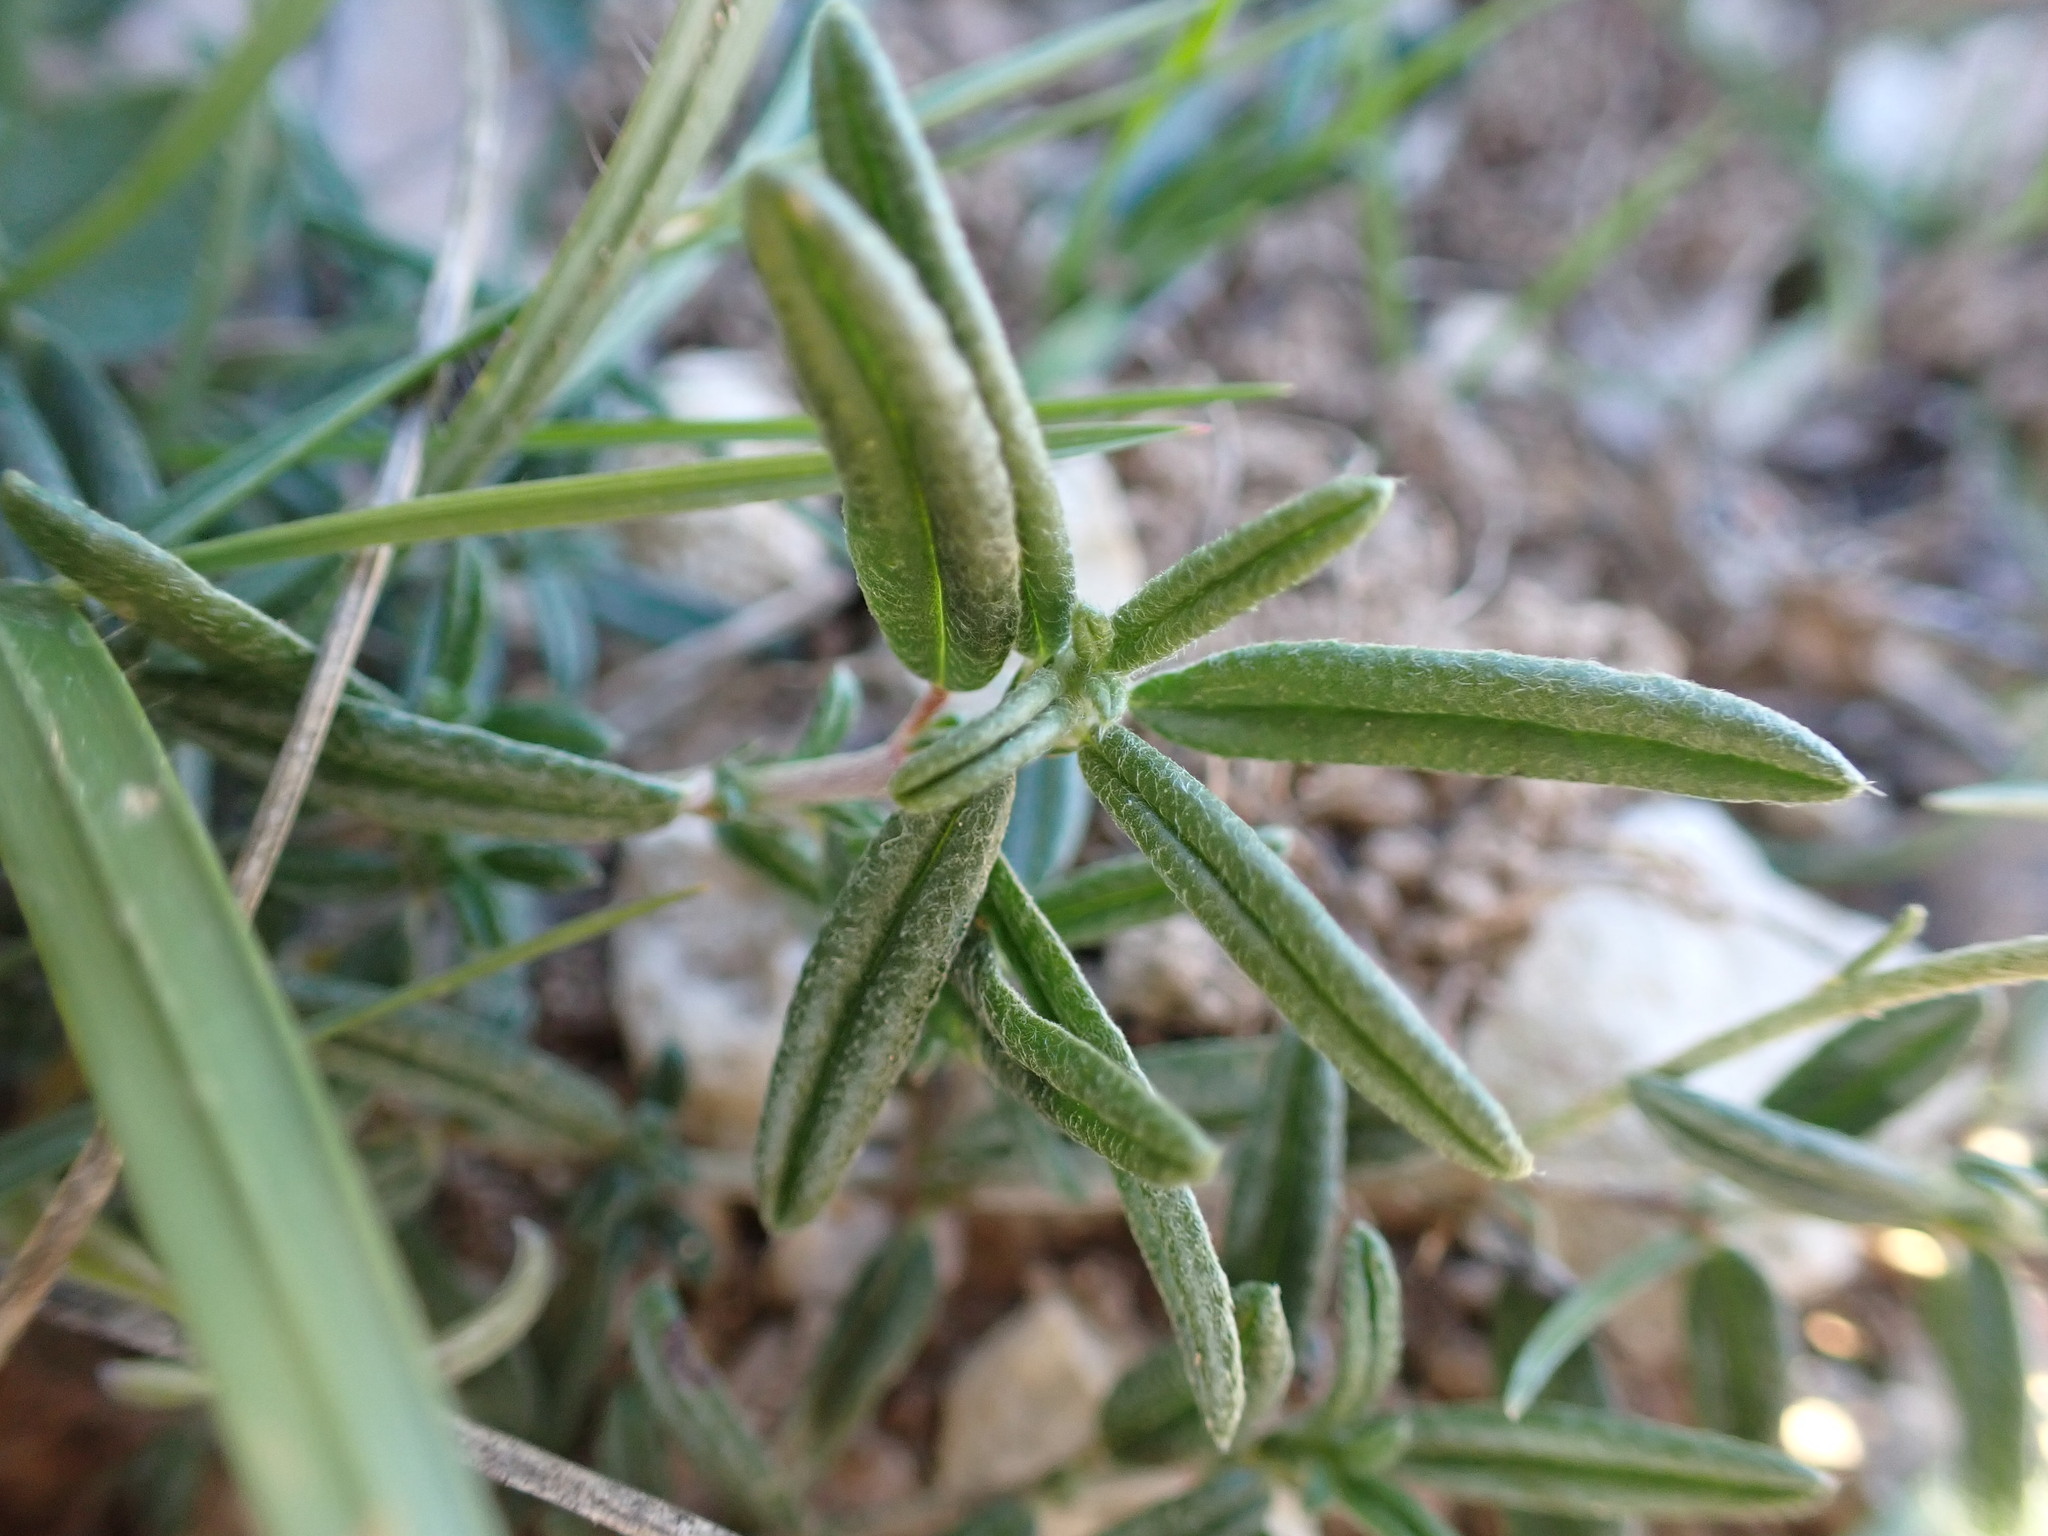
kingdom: Plantae
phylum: Tracheophyta
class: Magnoliopsida
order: Malvales
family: Cistaceae
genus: Helianthemum
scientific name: Helianthemum apenninum
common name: White rock-rose
